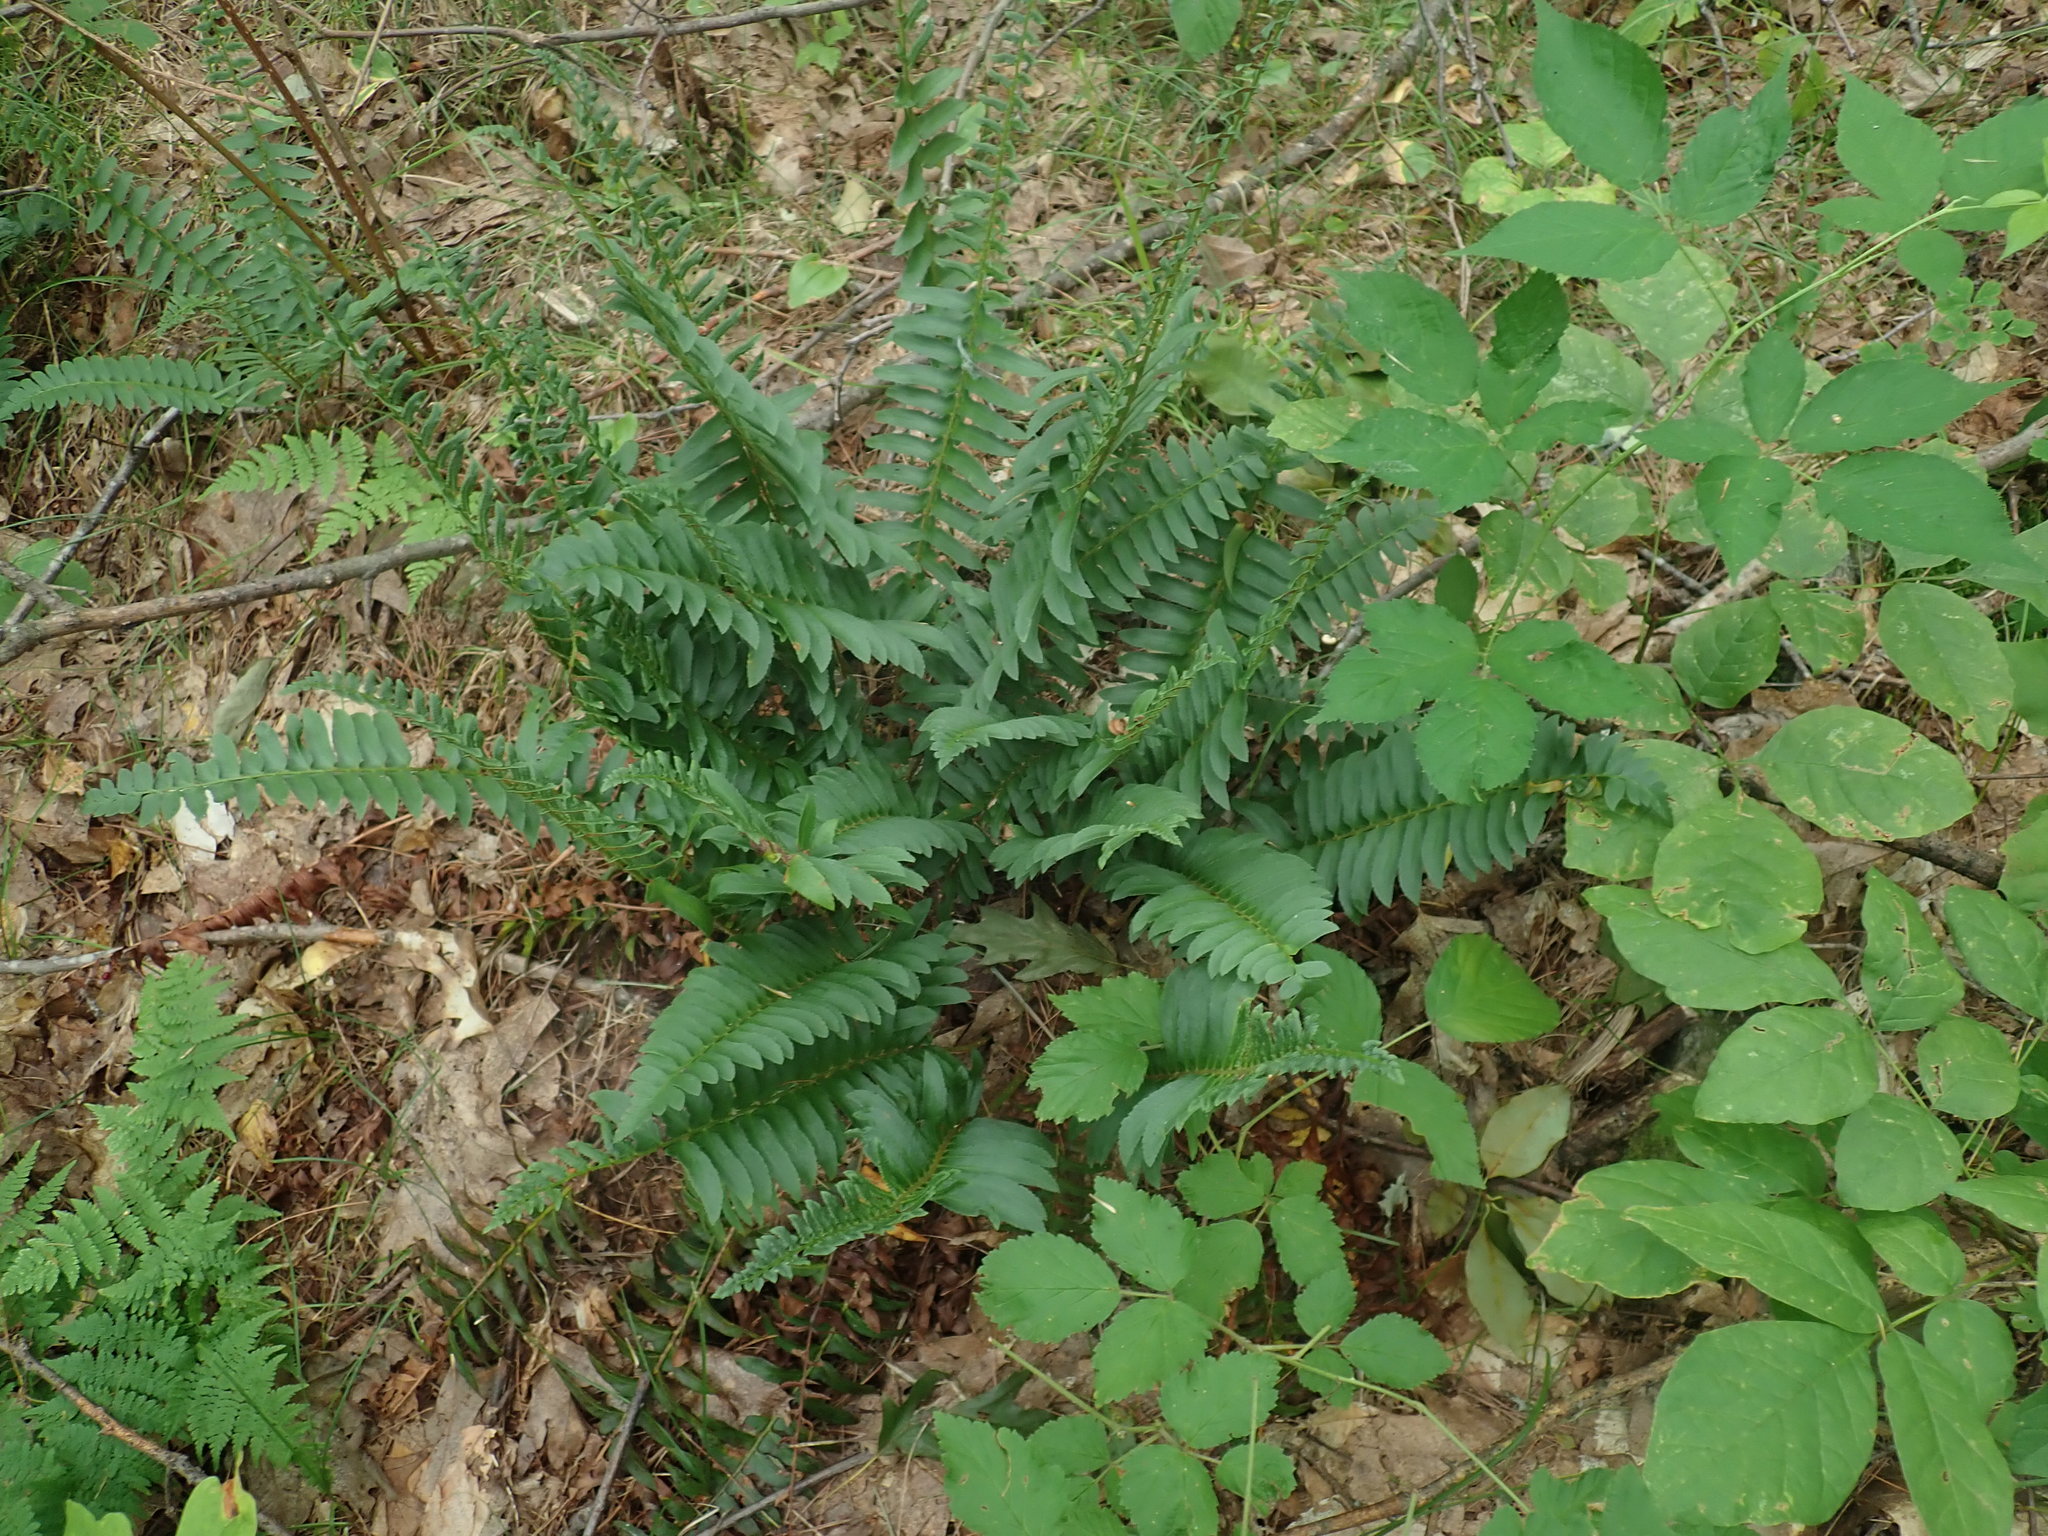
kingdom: Plantae
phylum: Tracheophyta
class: Polypodiopsida
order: Polypodiales
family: Dryopteridaceae
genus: Polystichum
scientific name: Polystichum acrostichoides
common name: Christmas fern
